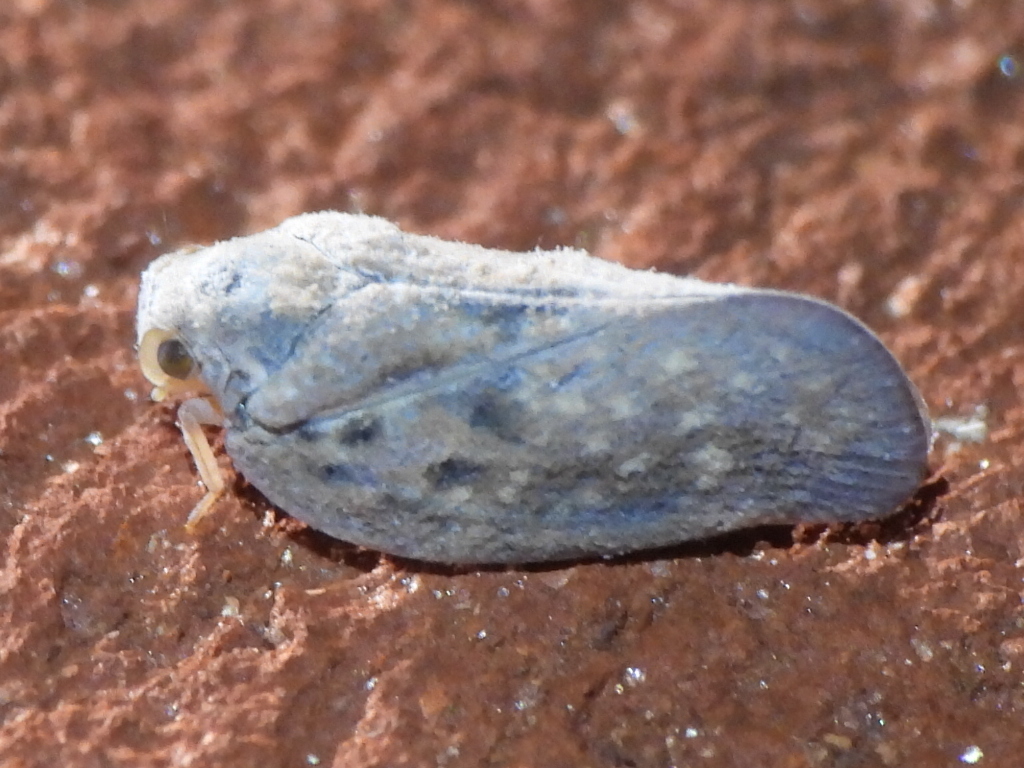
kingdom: Animalia
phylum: Arthropoda
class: Insecta
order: Hemiptera
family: Flatidae
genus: Metcalfa
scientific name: Metcalfa pruinosa
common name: Citrus flatid planthopper
